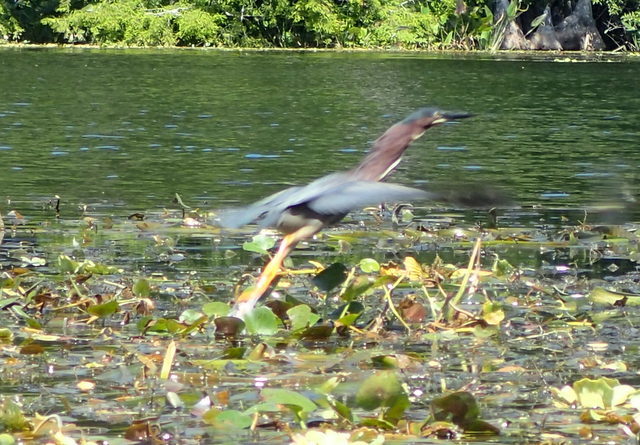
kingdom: Animalia
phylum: Chordata
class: Aves
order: Pelecaniformes
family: Ardeidae
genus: Butorides
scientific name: Butorides virescens
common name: Green heron
